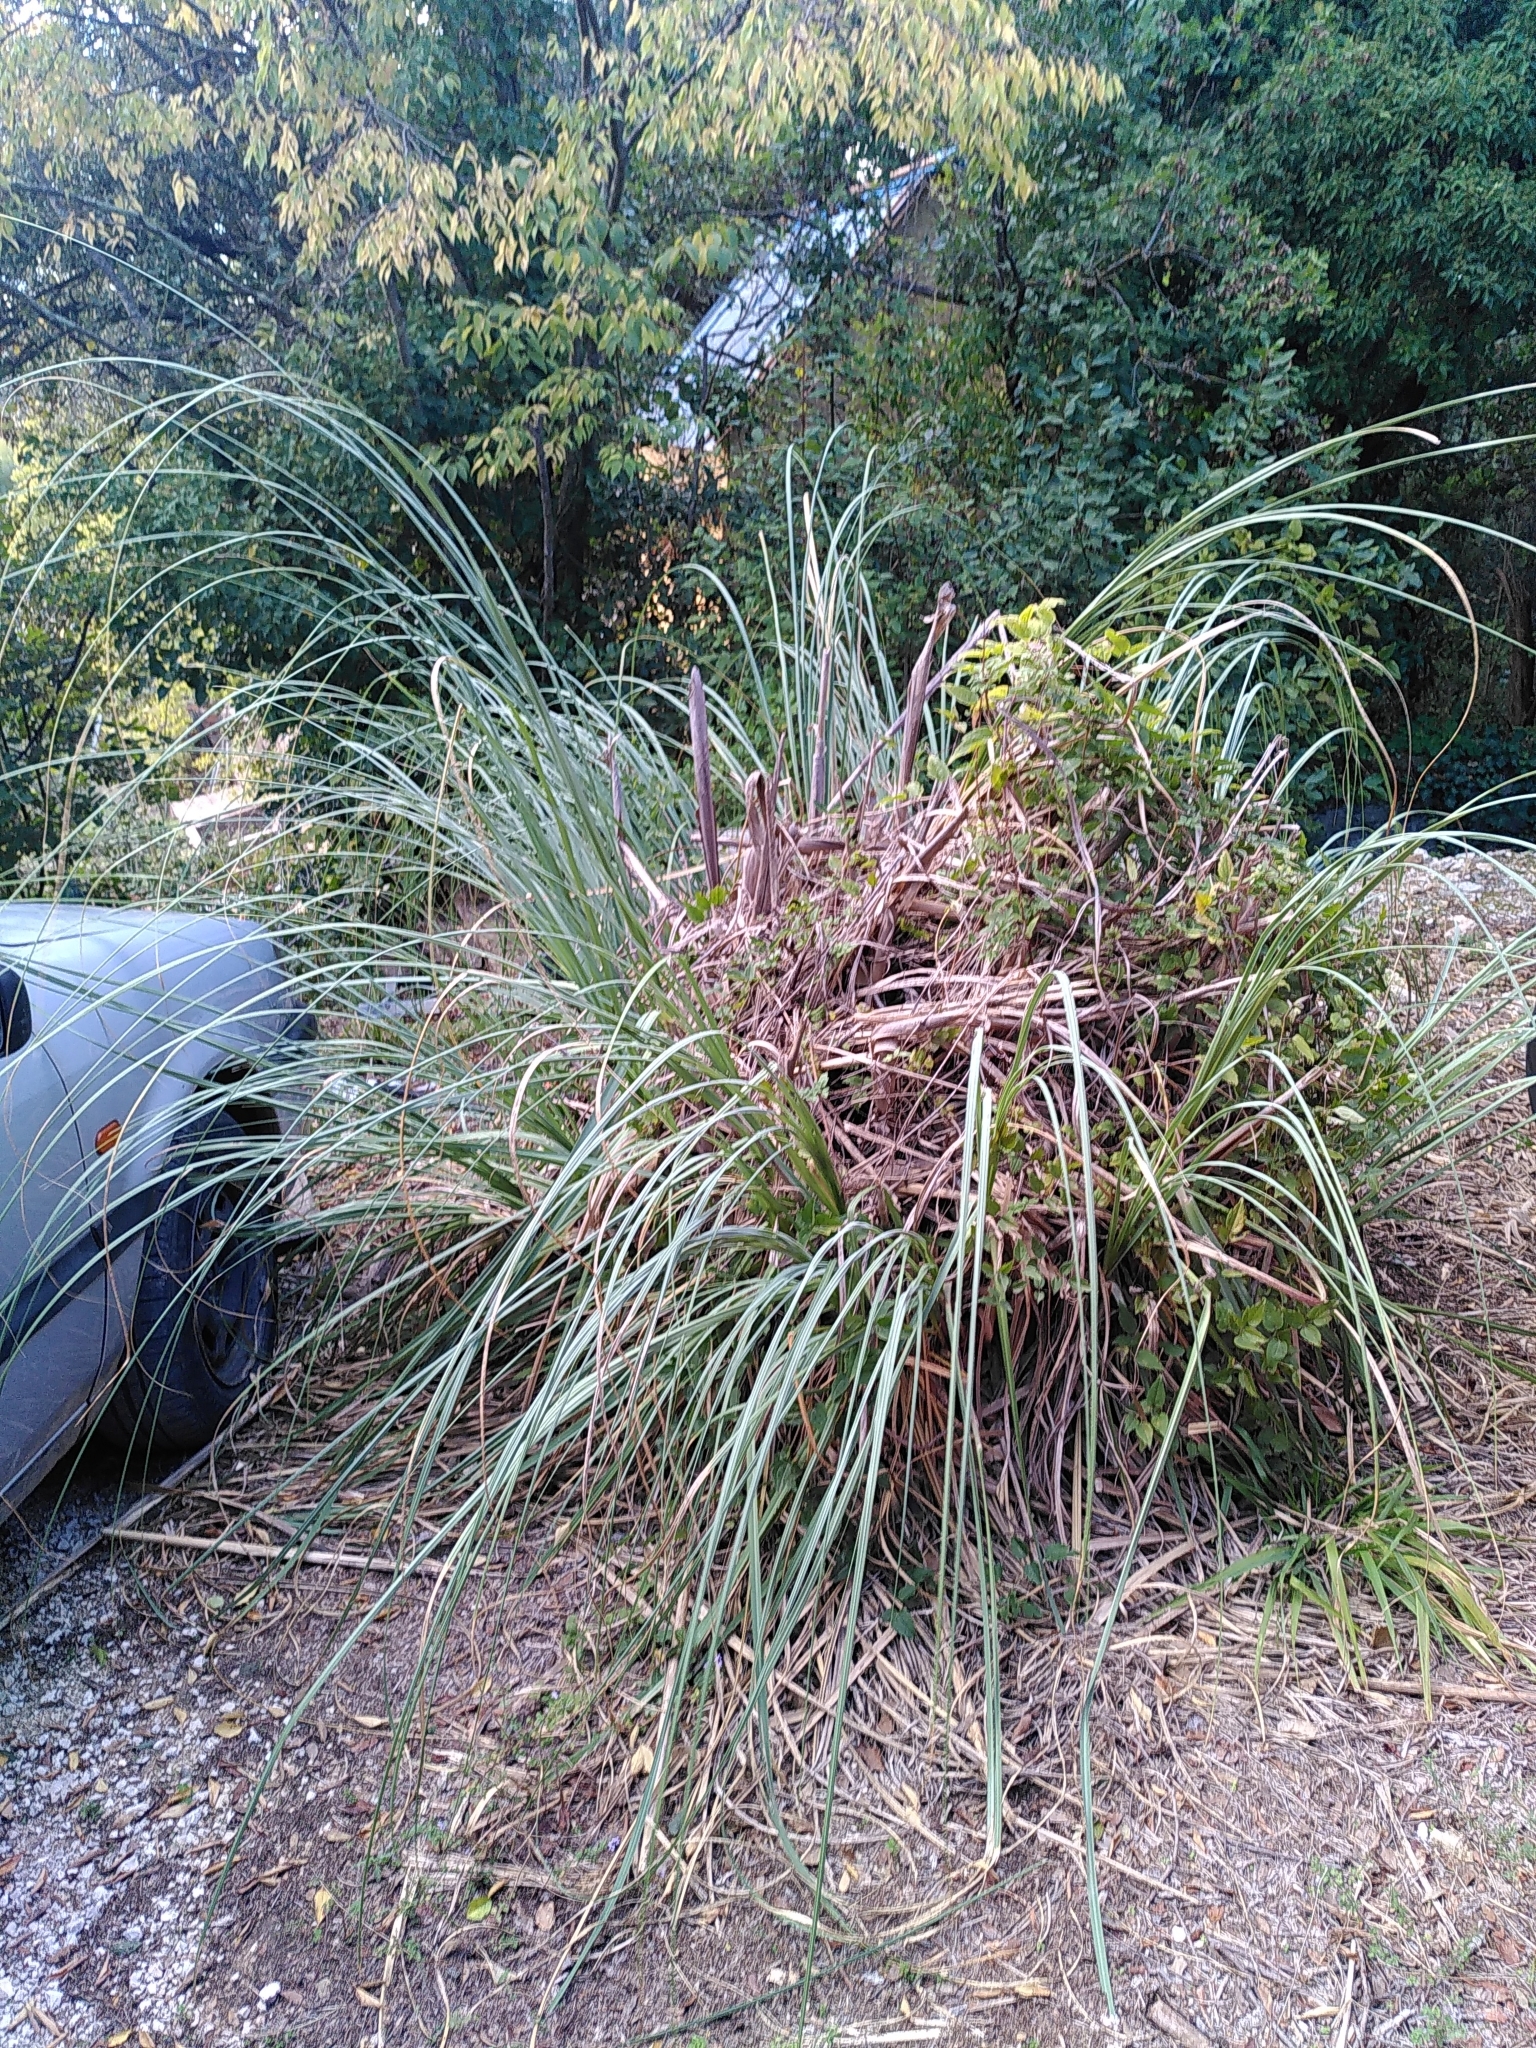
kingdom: Plantae
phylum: Tracheophyta
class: Liliopsida
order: Poales
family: Poaceae
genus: Cortaderia
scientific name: Cortaderia selloana
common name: Uruguayan pampas grass
